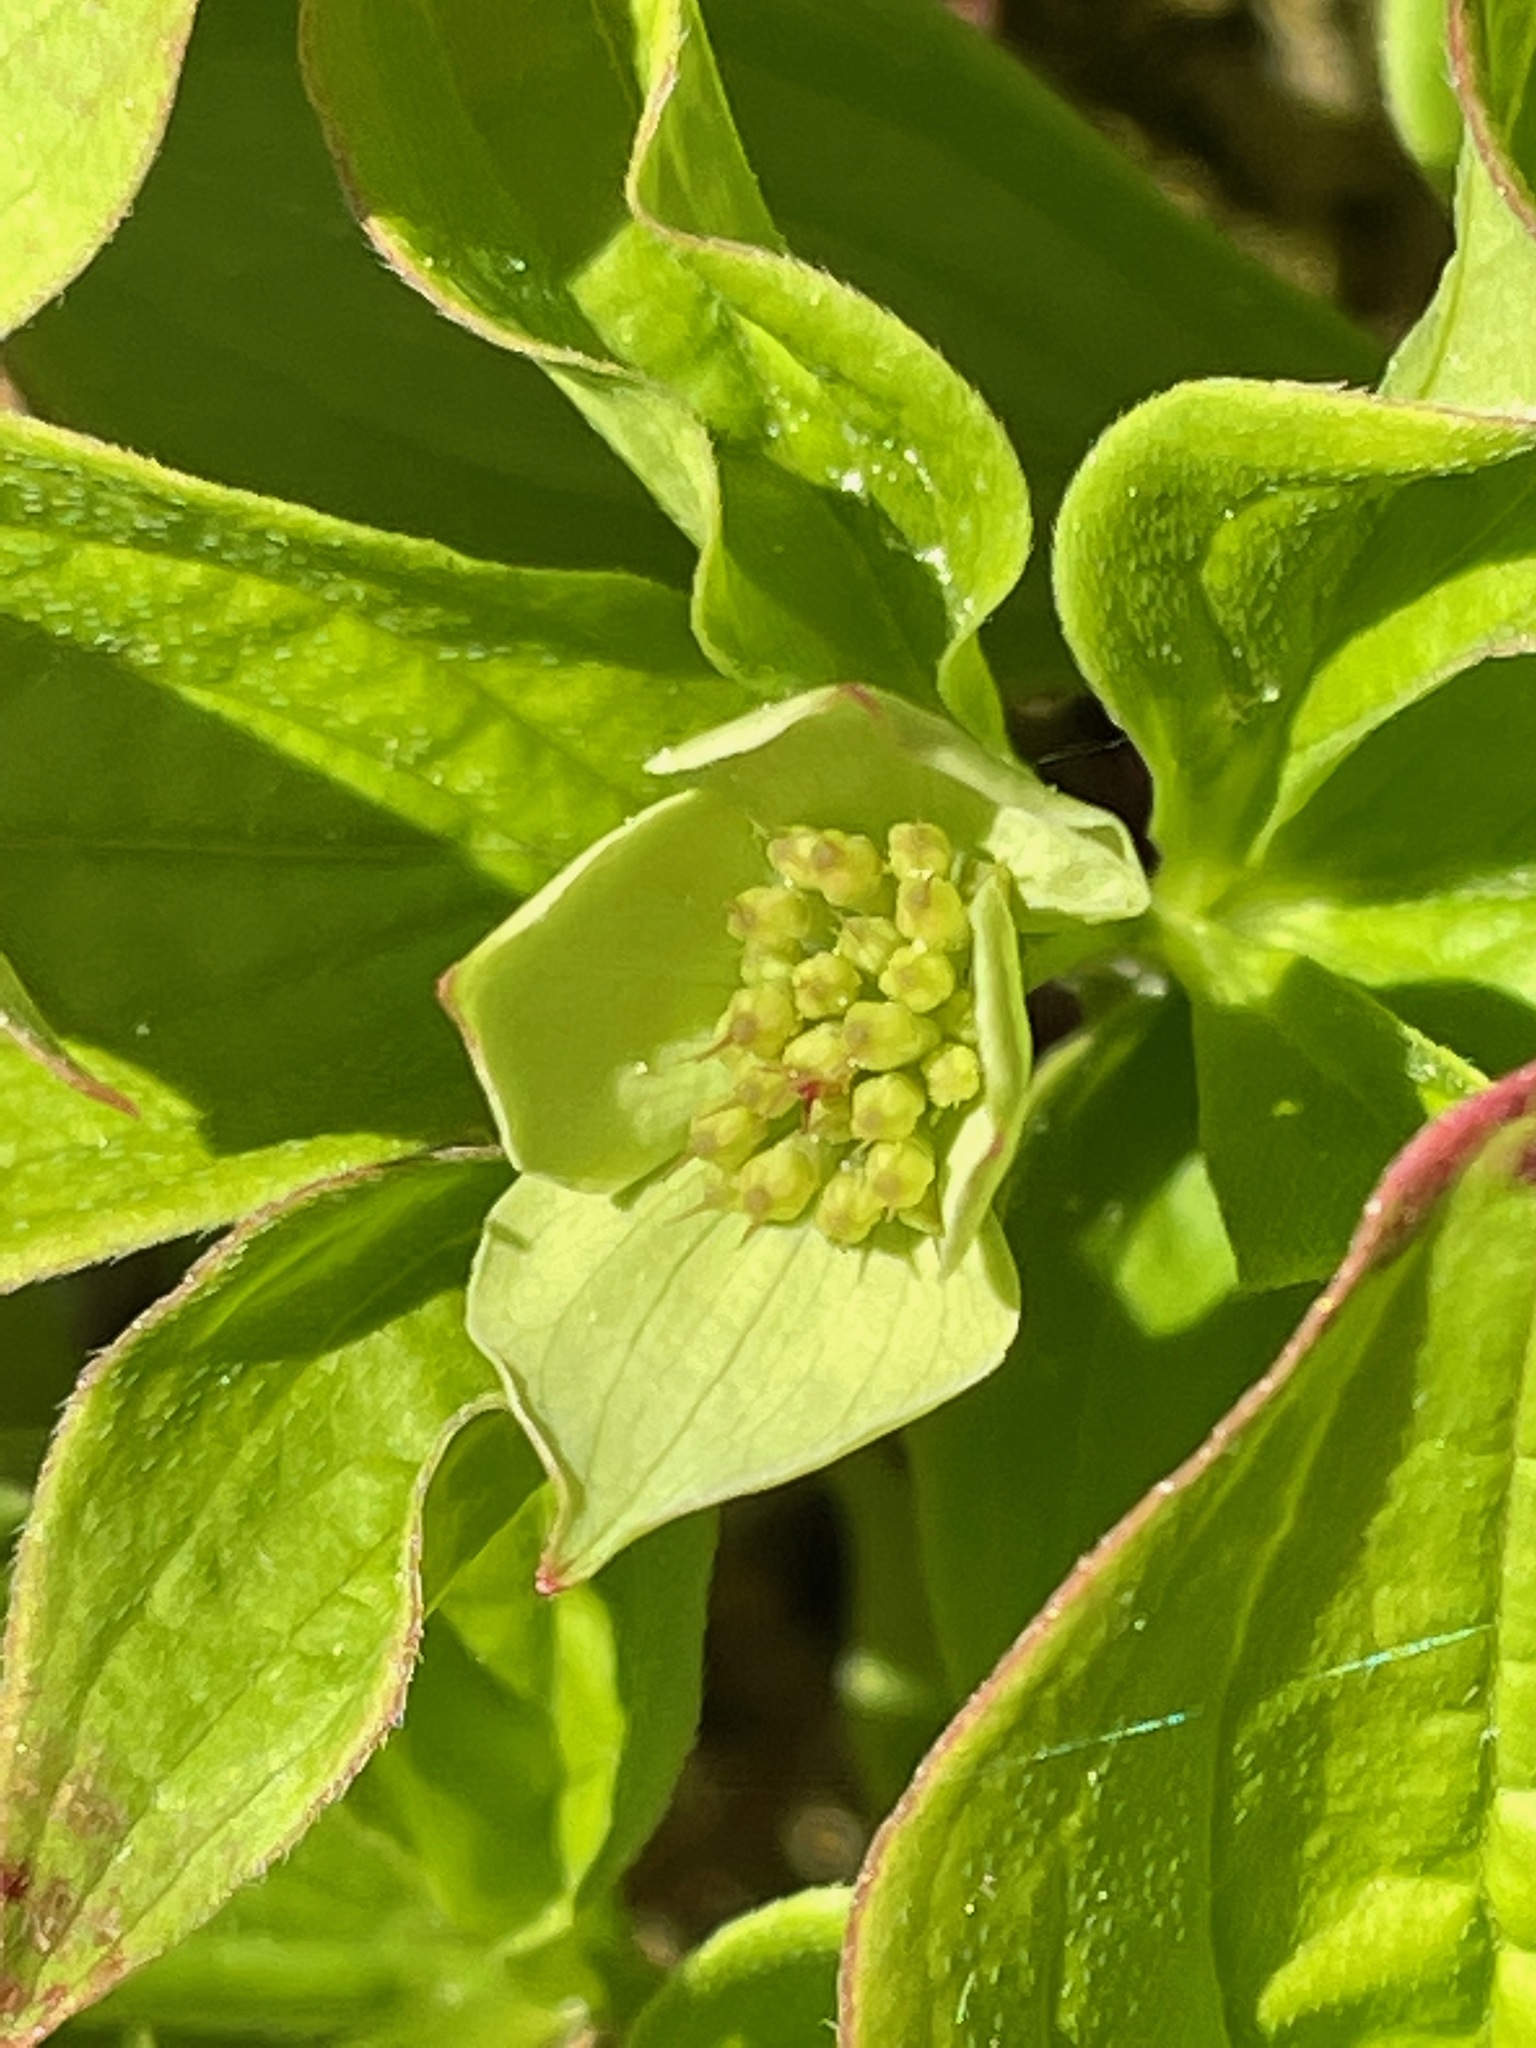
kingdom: Plantae
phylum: Tracheophyta
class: Magnoliopsida
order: Cornales
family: Cornaceae
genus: Cornus
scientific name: Cornus canadensis
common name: Creeping dogwood
